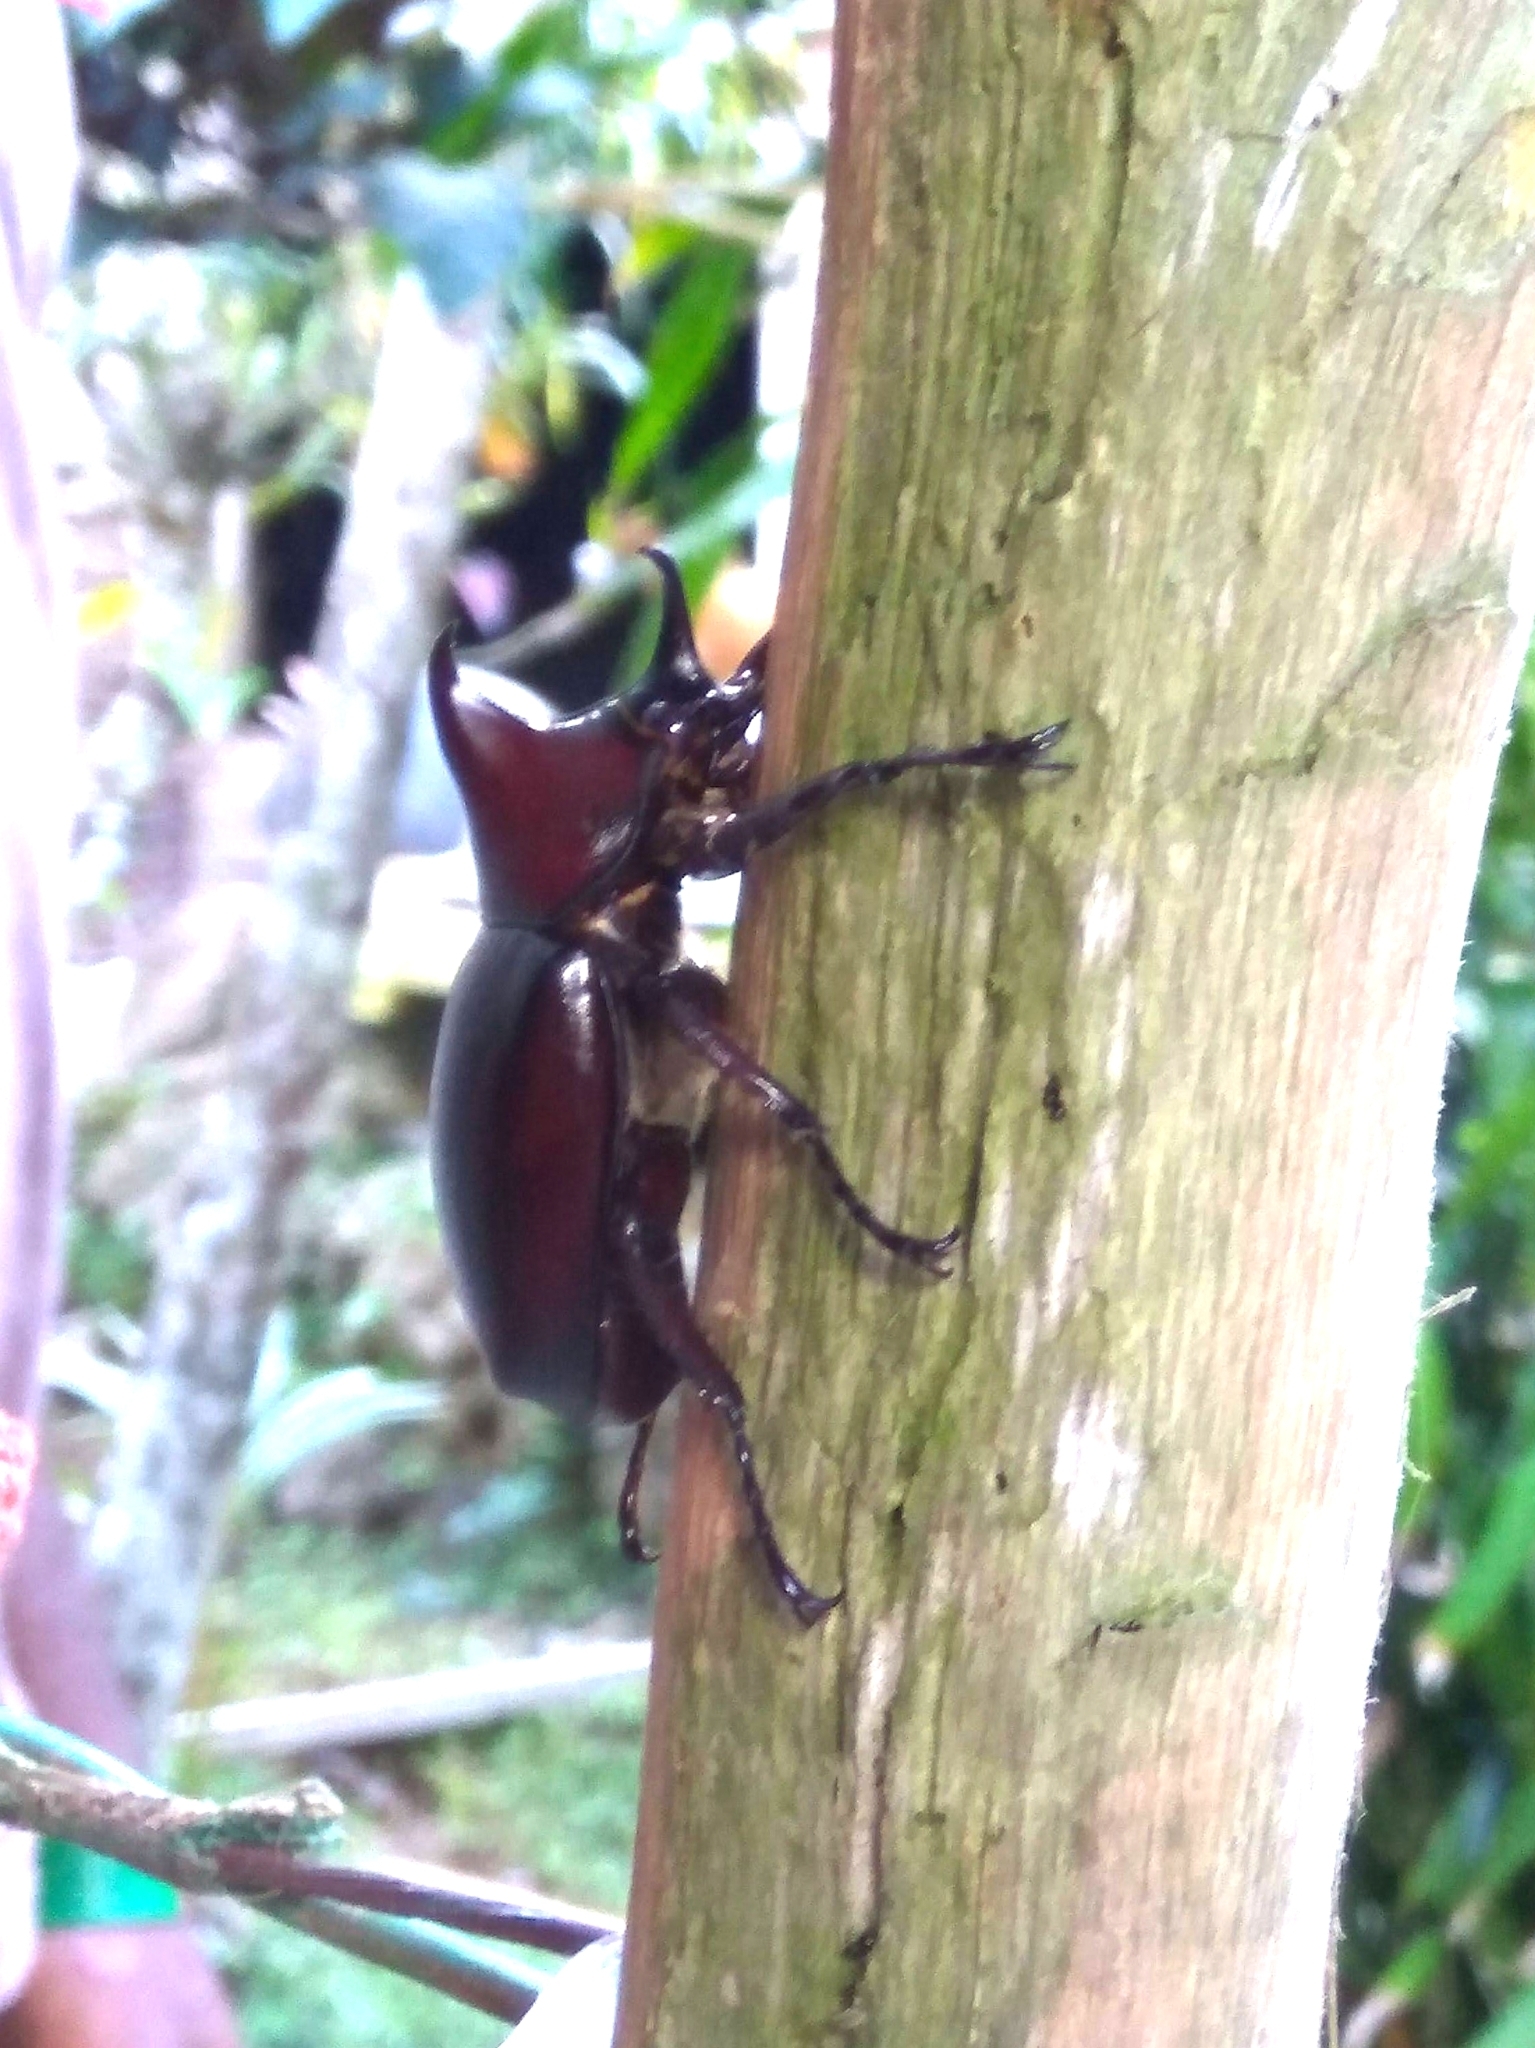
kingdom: Animalia
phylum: Arthropoda
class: Insecta
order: Coleoptera
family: Scarabaeidae
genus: Xylotrupes
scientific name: Xylotrupes macleayi
